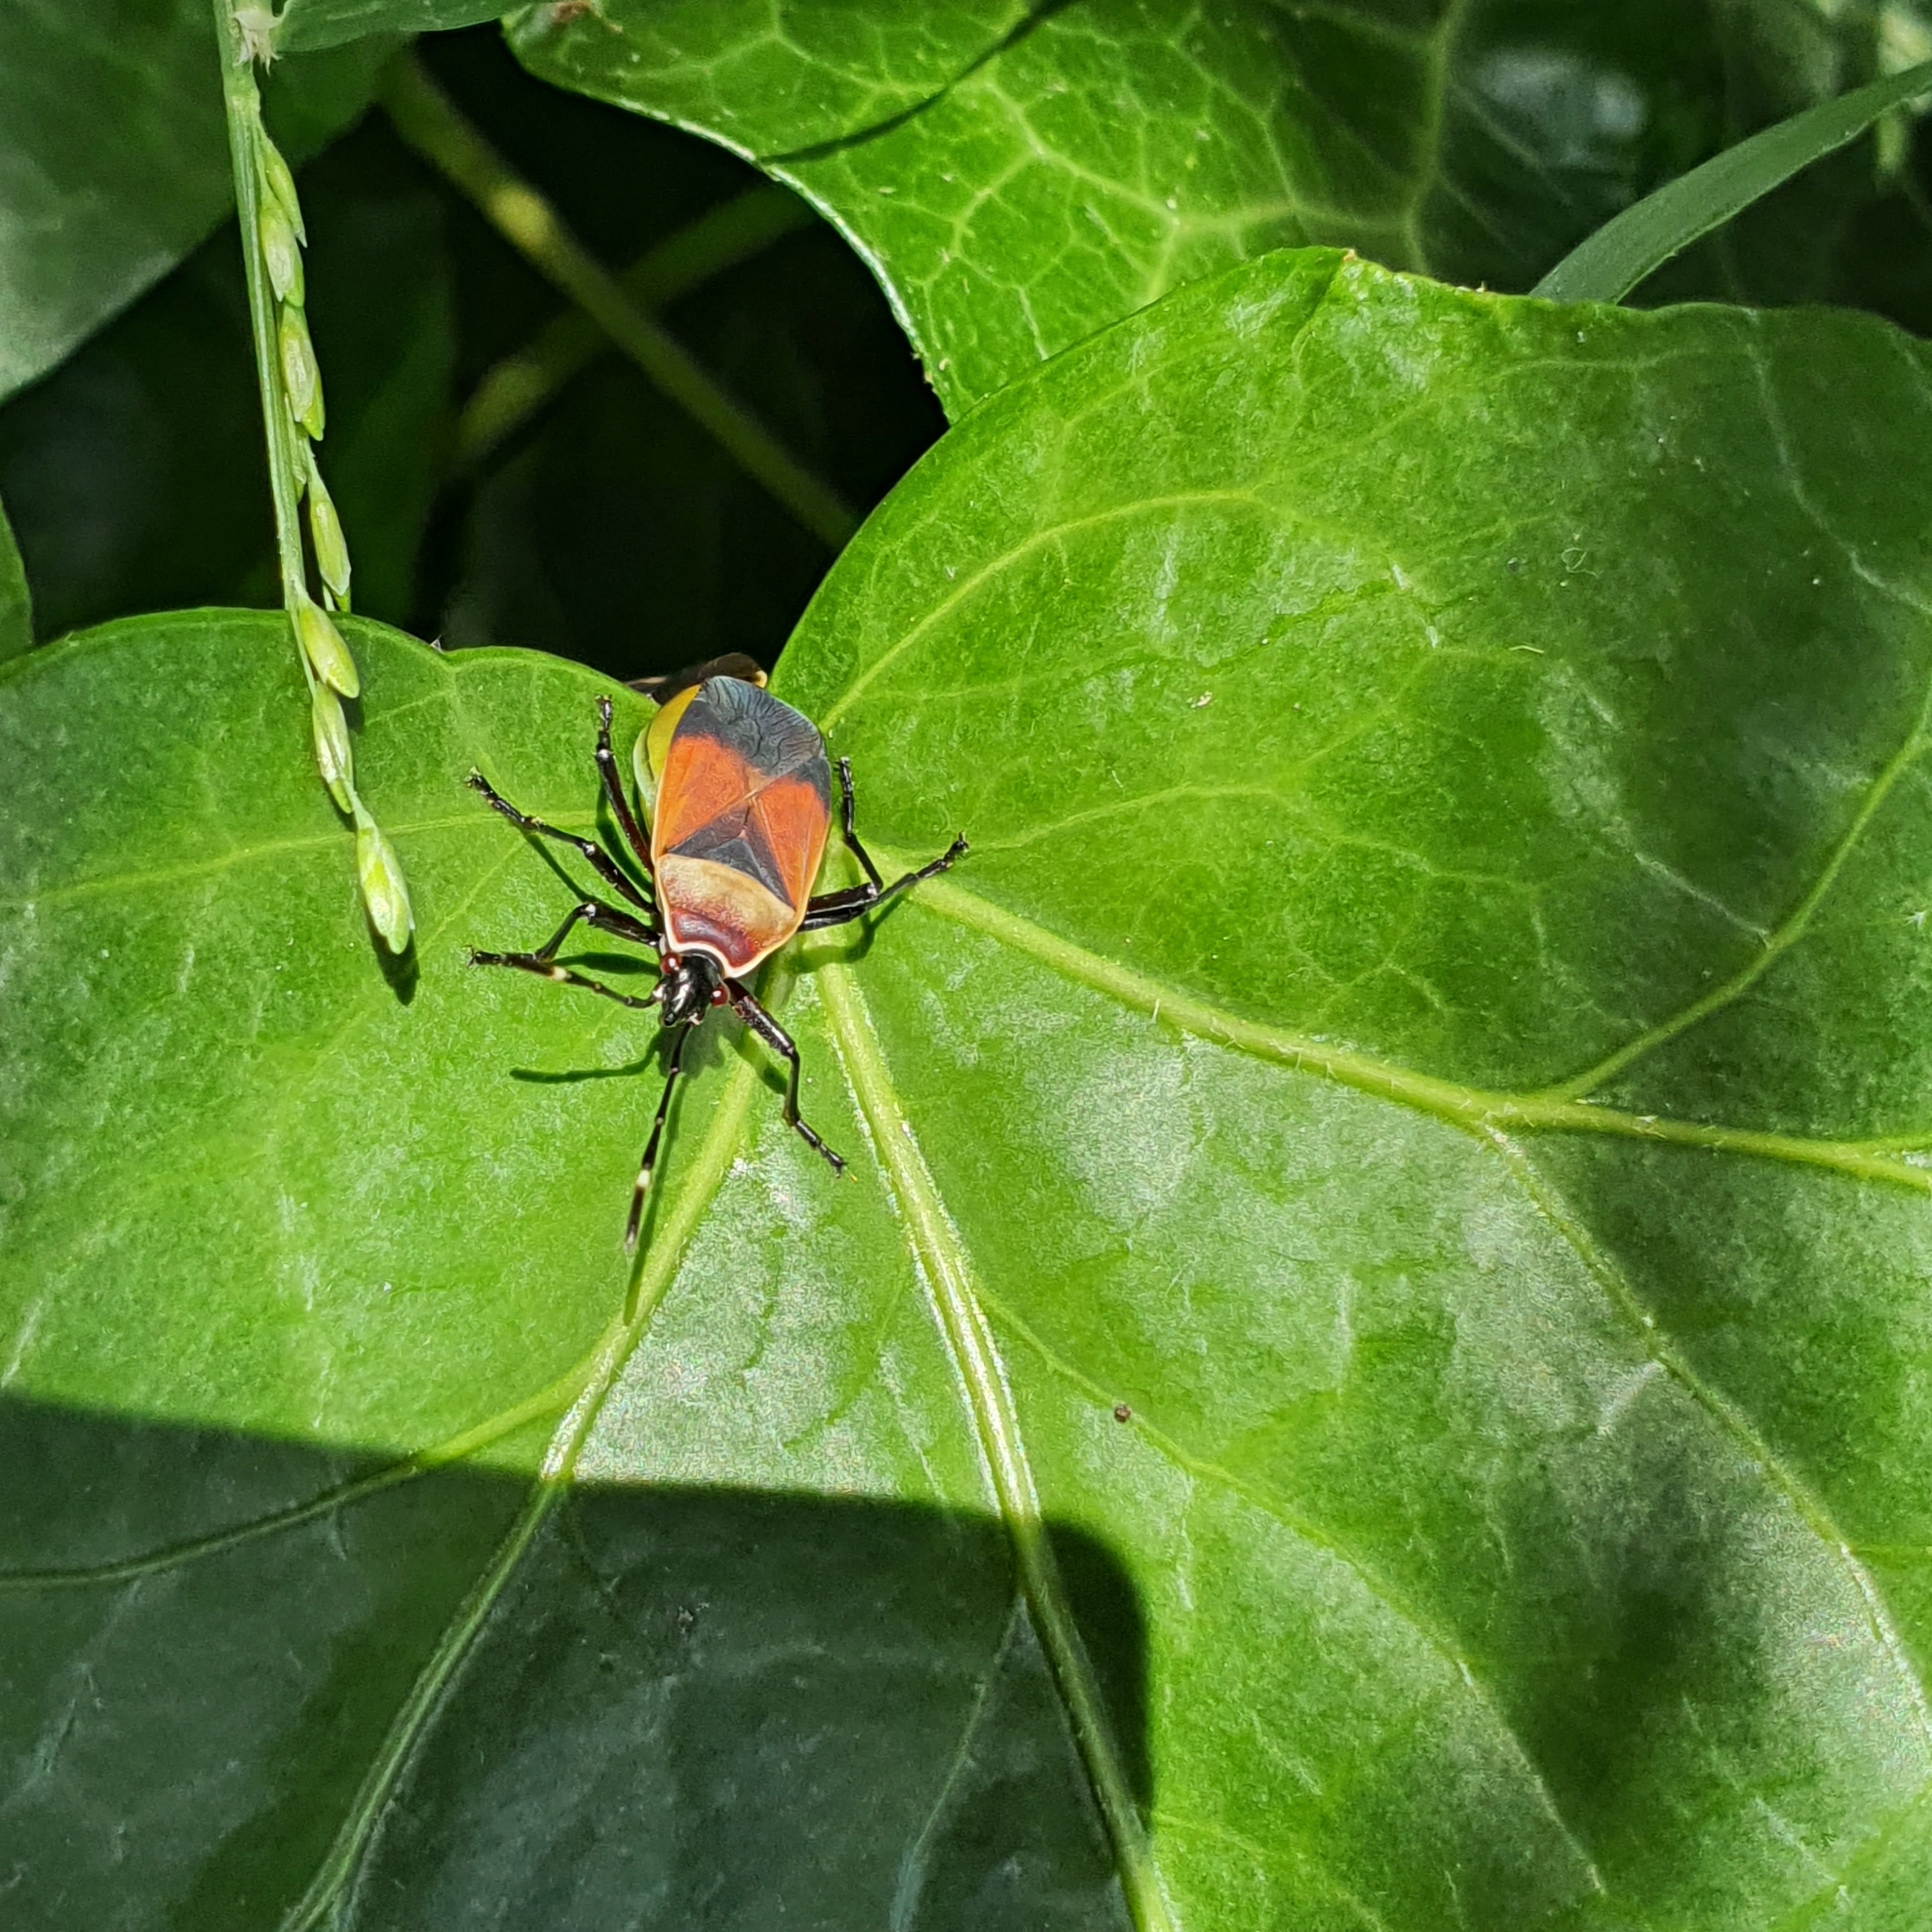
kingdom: Animalia
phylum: Arthropoda
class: Insecta
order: Hemiptera
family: Pyrrhocoridae
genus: Dindymus
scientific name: Dindymus
